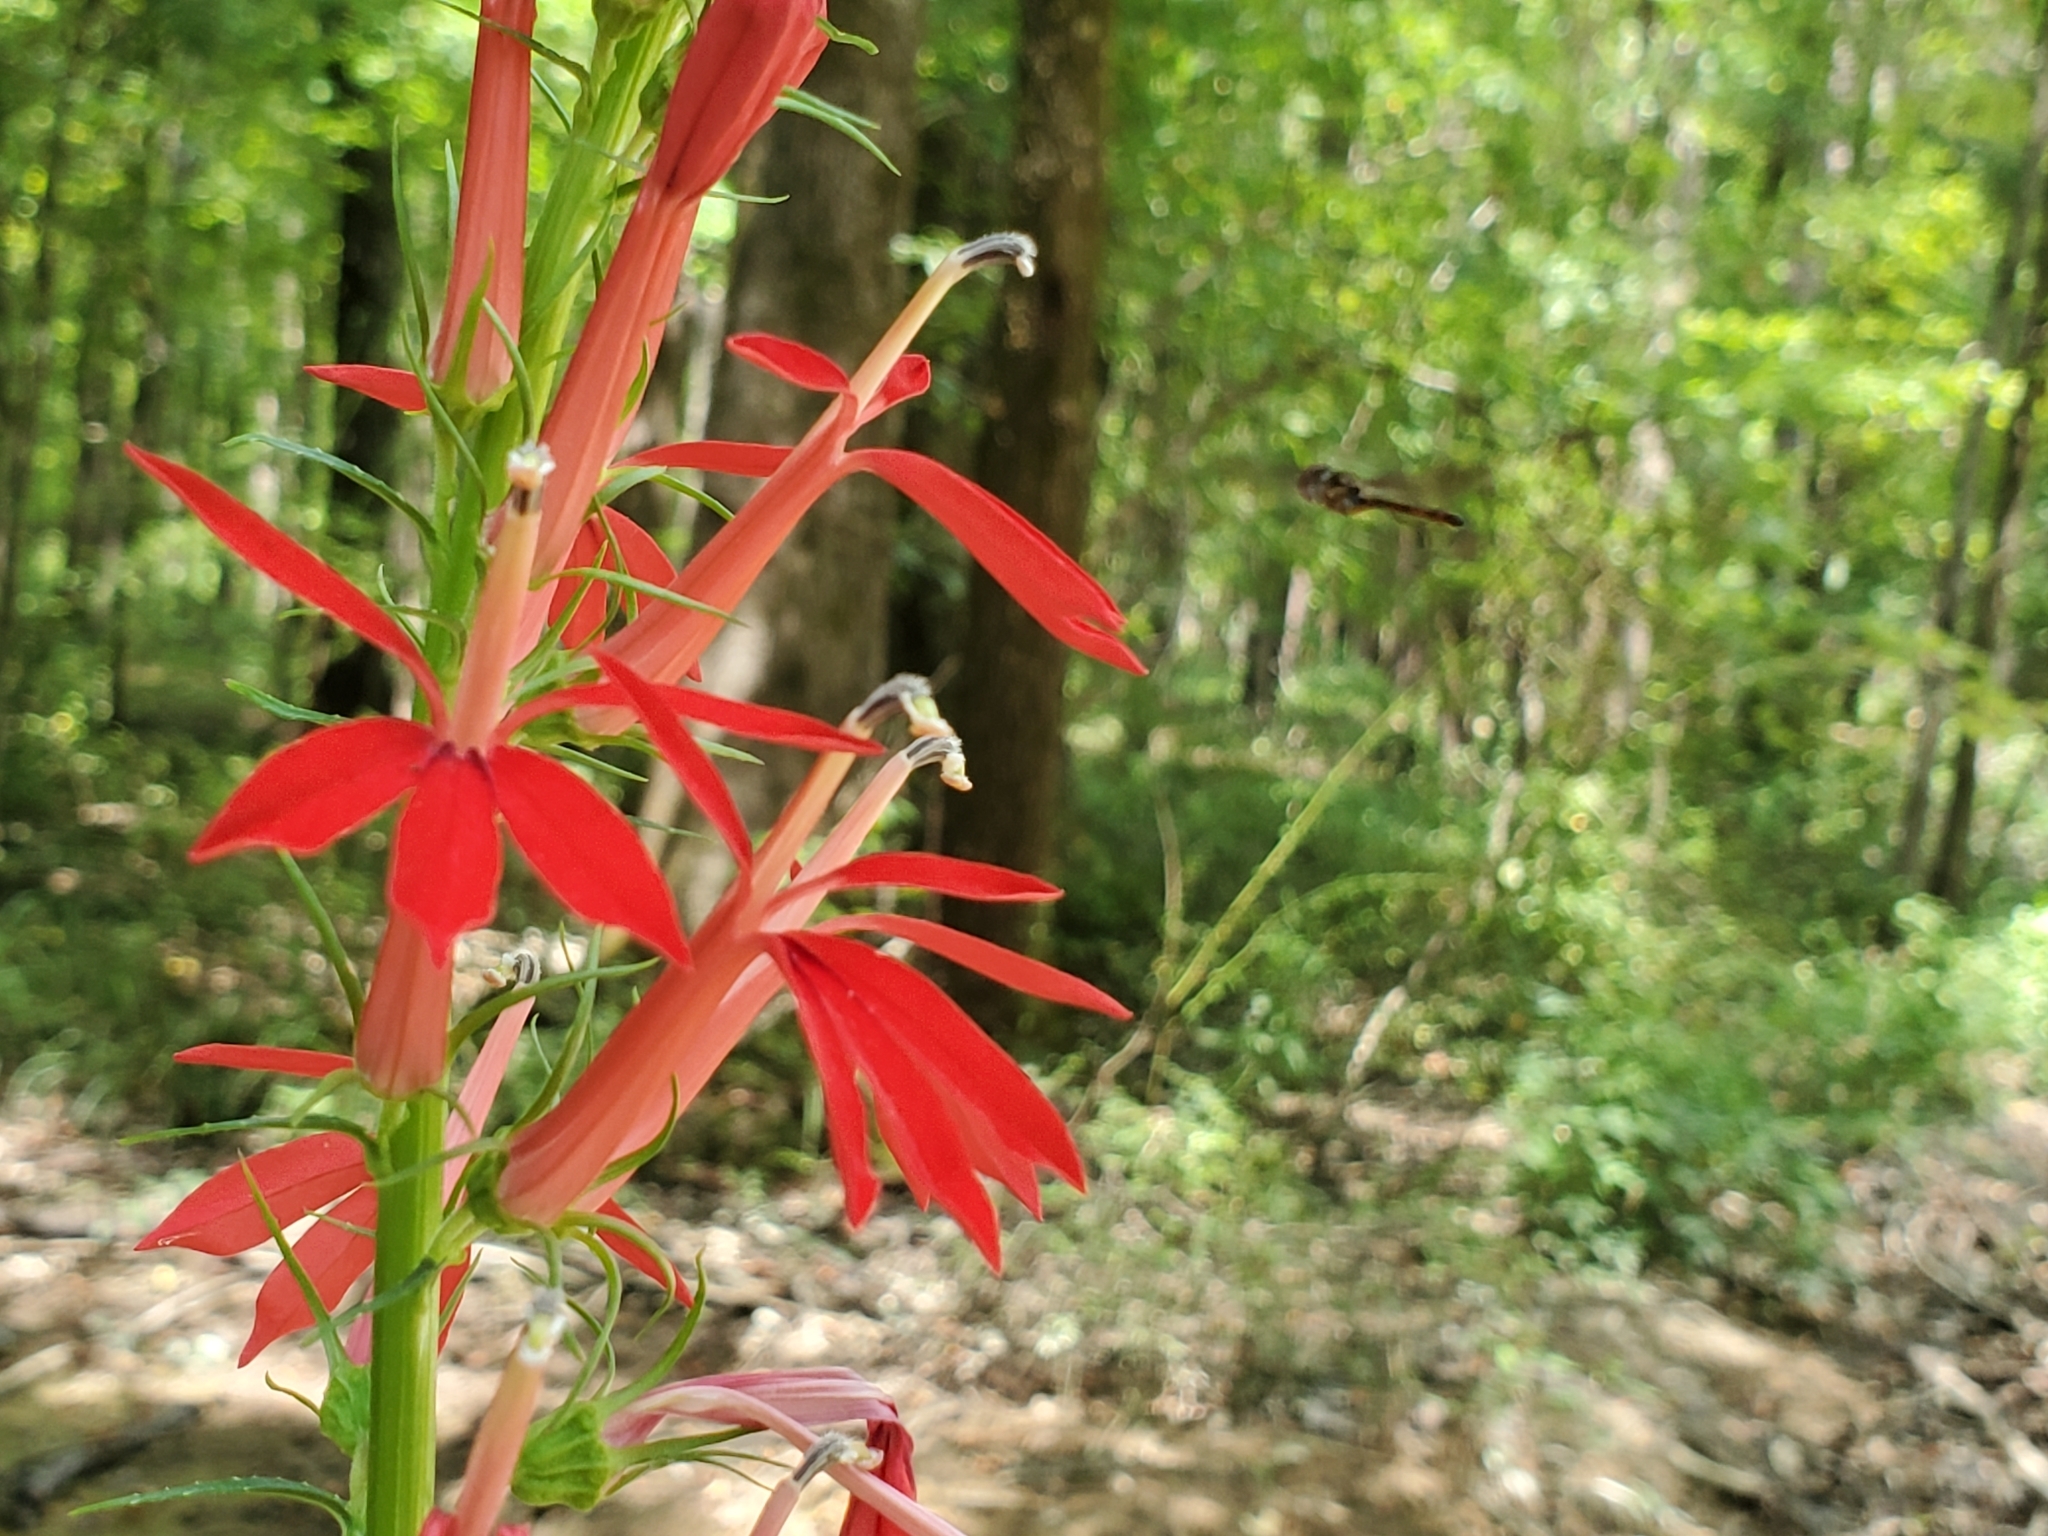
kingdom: Plantae
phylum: Tracheophyta
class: Magnoliopsida
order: Asterales
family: Campanulaceae
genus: Lobelia
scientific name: Lobelia cardinalis
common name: Cardinal flower
